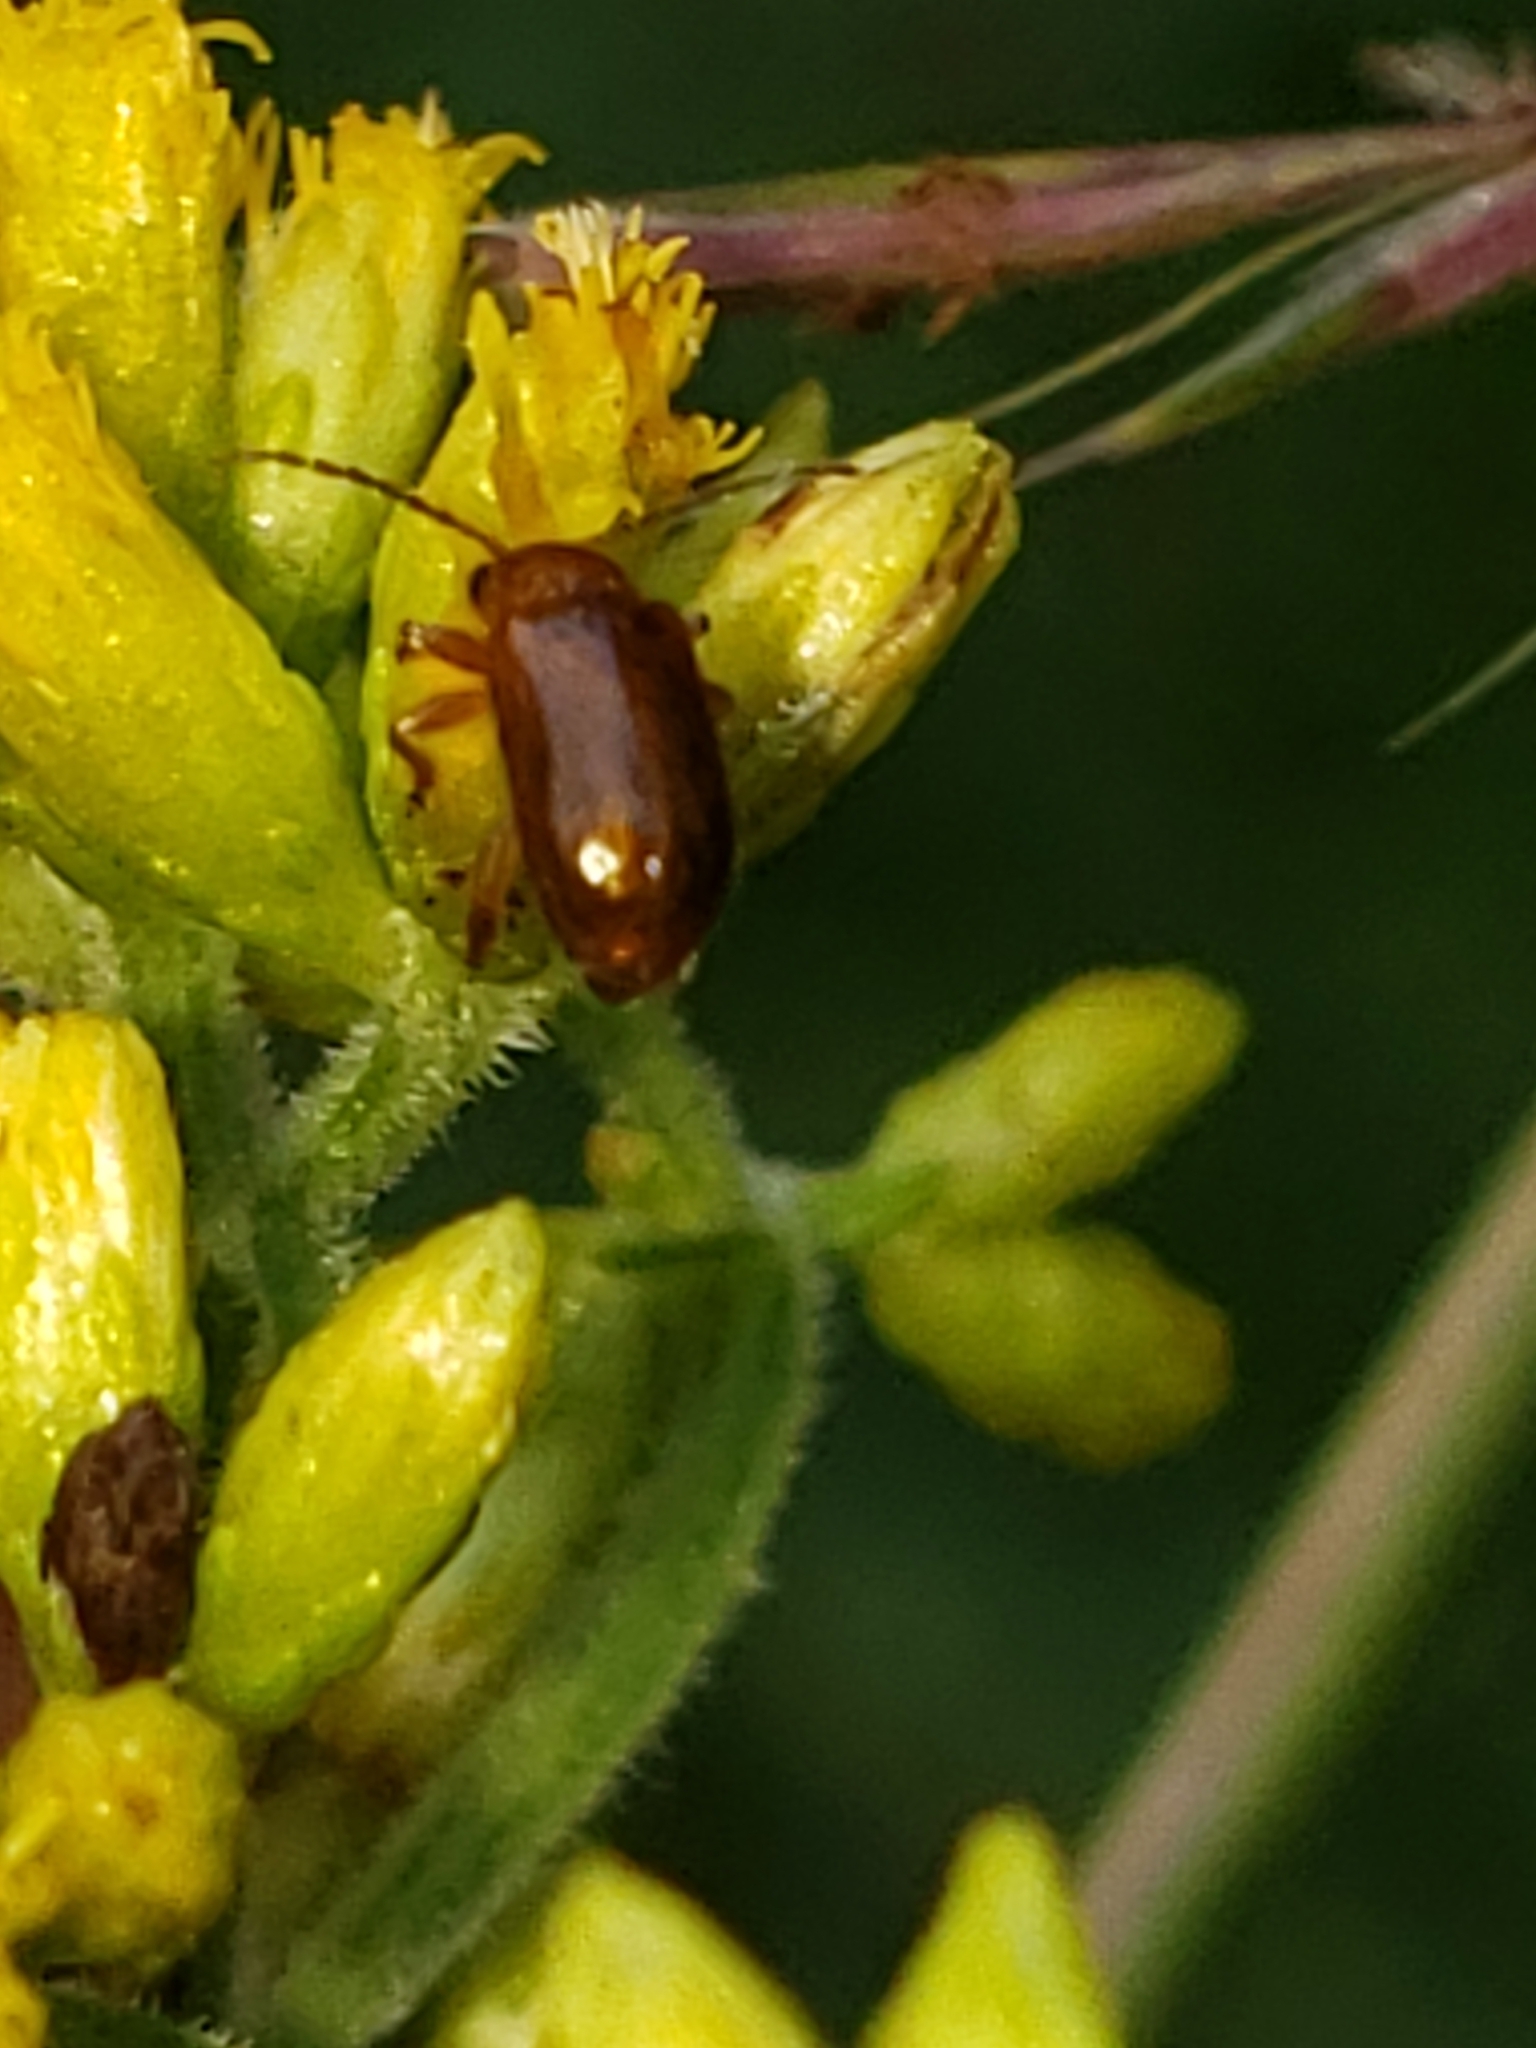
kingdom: Animalia
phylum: Arthropoda
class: Insecta
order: Coleoptera
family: Chrysomelidae
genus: Luperaltica
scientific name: Luperaltica nigripalpis
